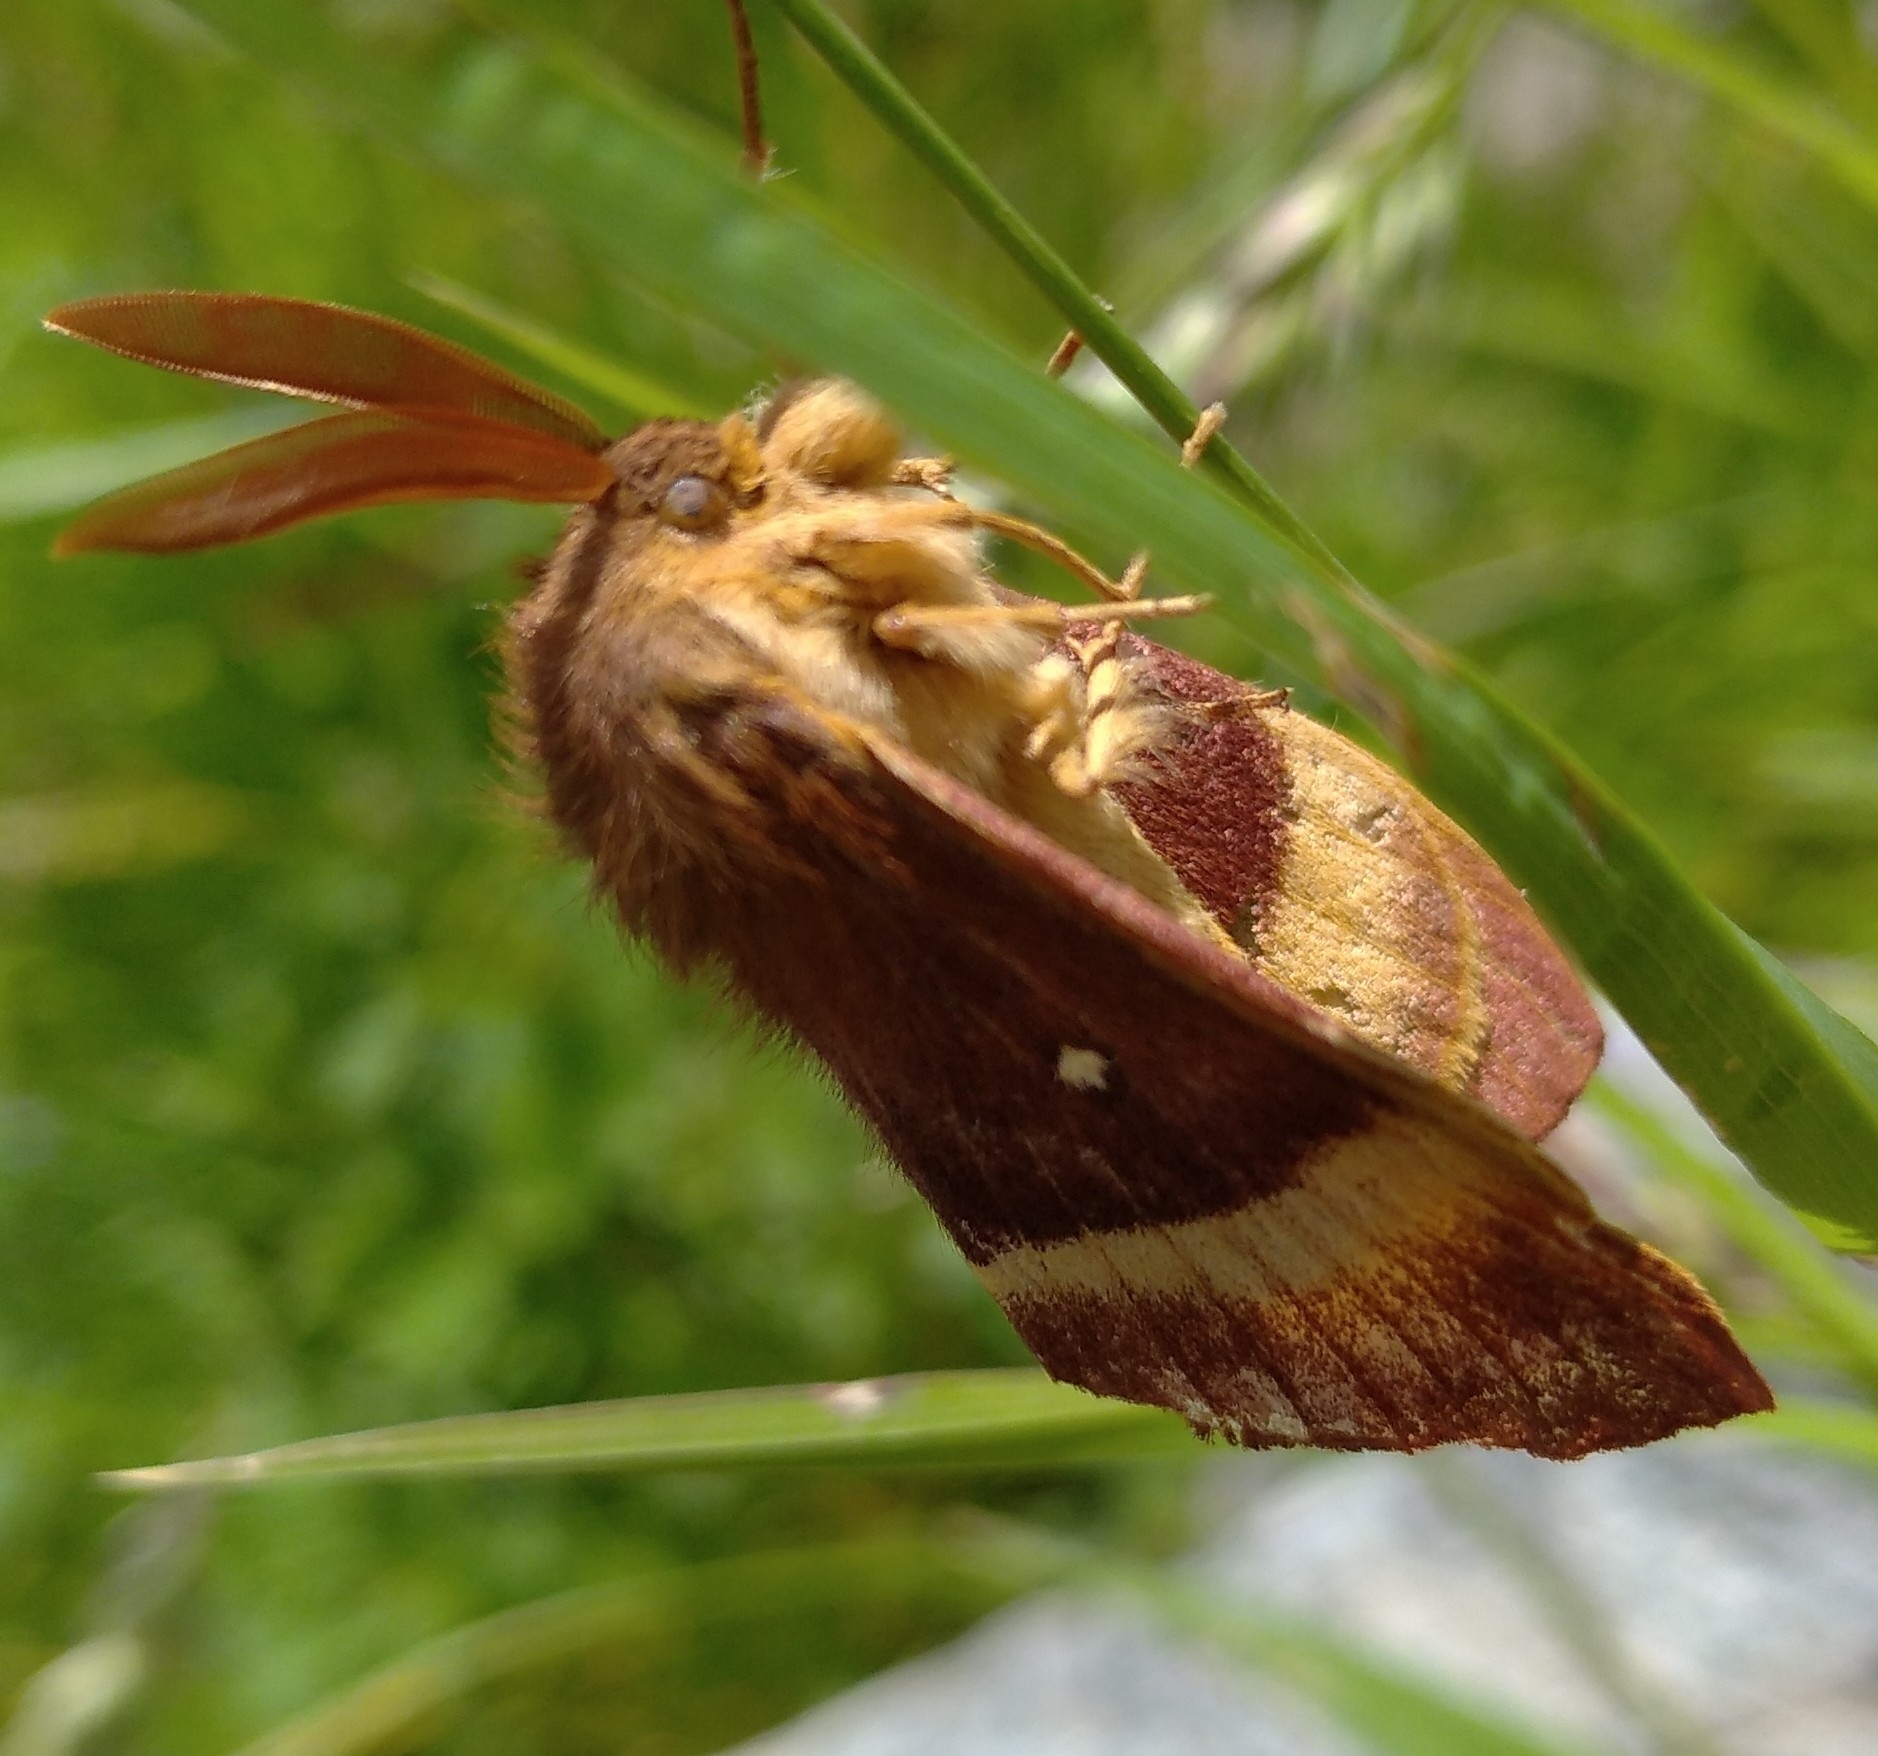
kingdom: Animalia
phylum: Arthropoda
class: Insecta
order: Lepidoptera
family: Lasiocampidae
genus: Lasiocampa
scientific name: Lasiocampa quercus
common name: Oak eggar
